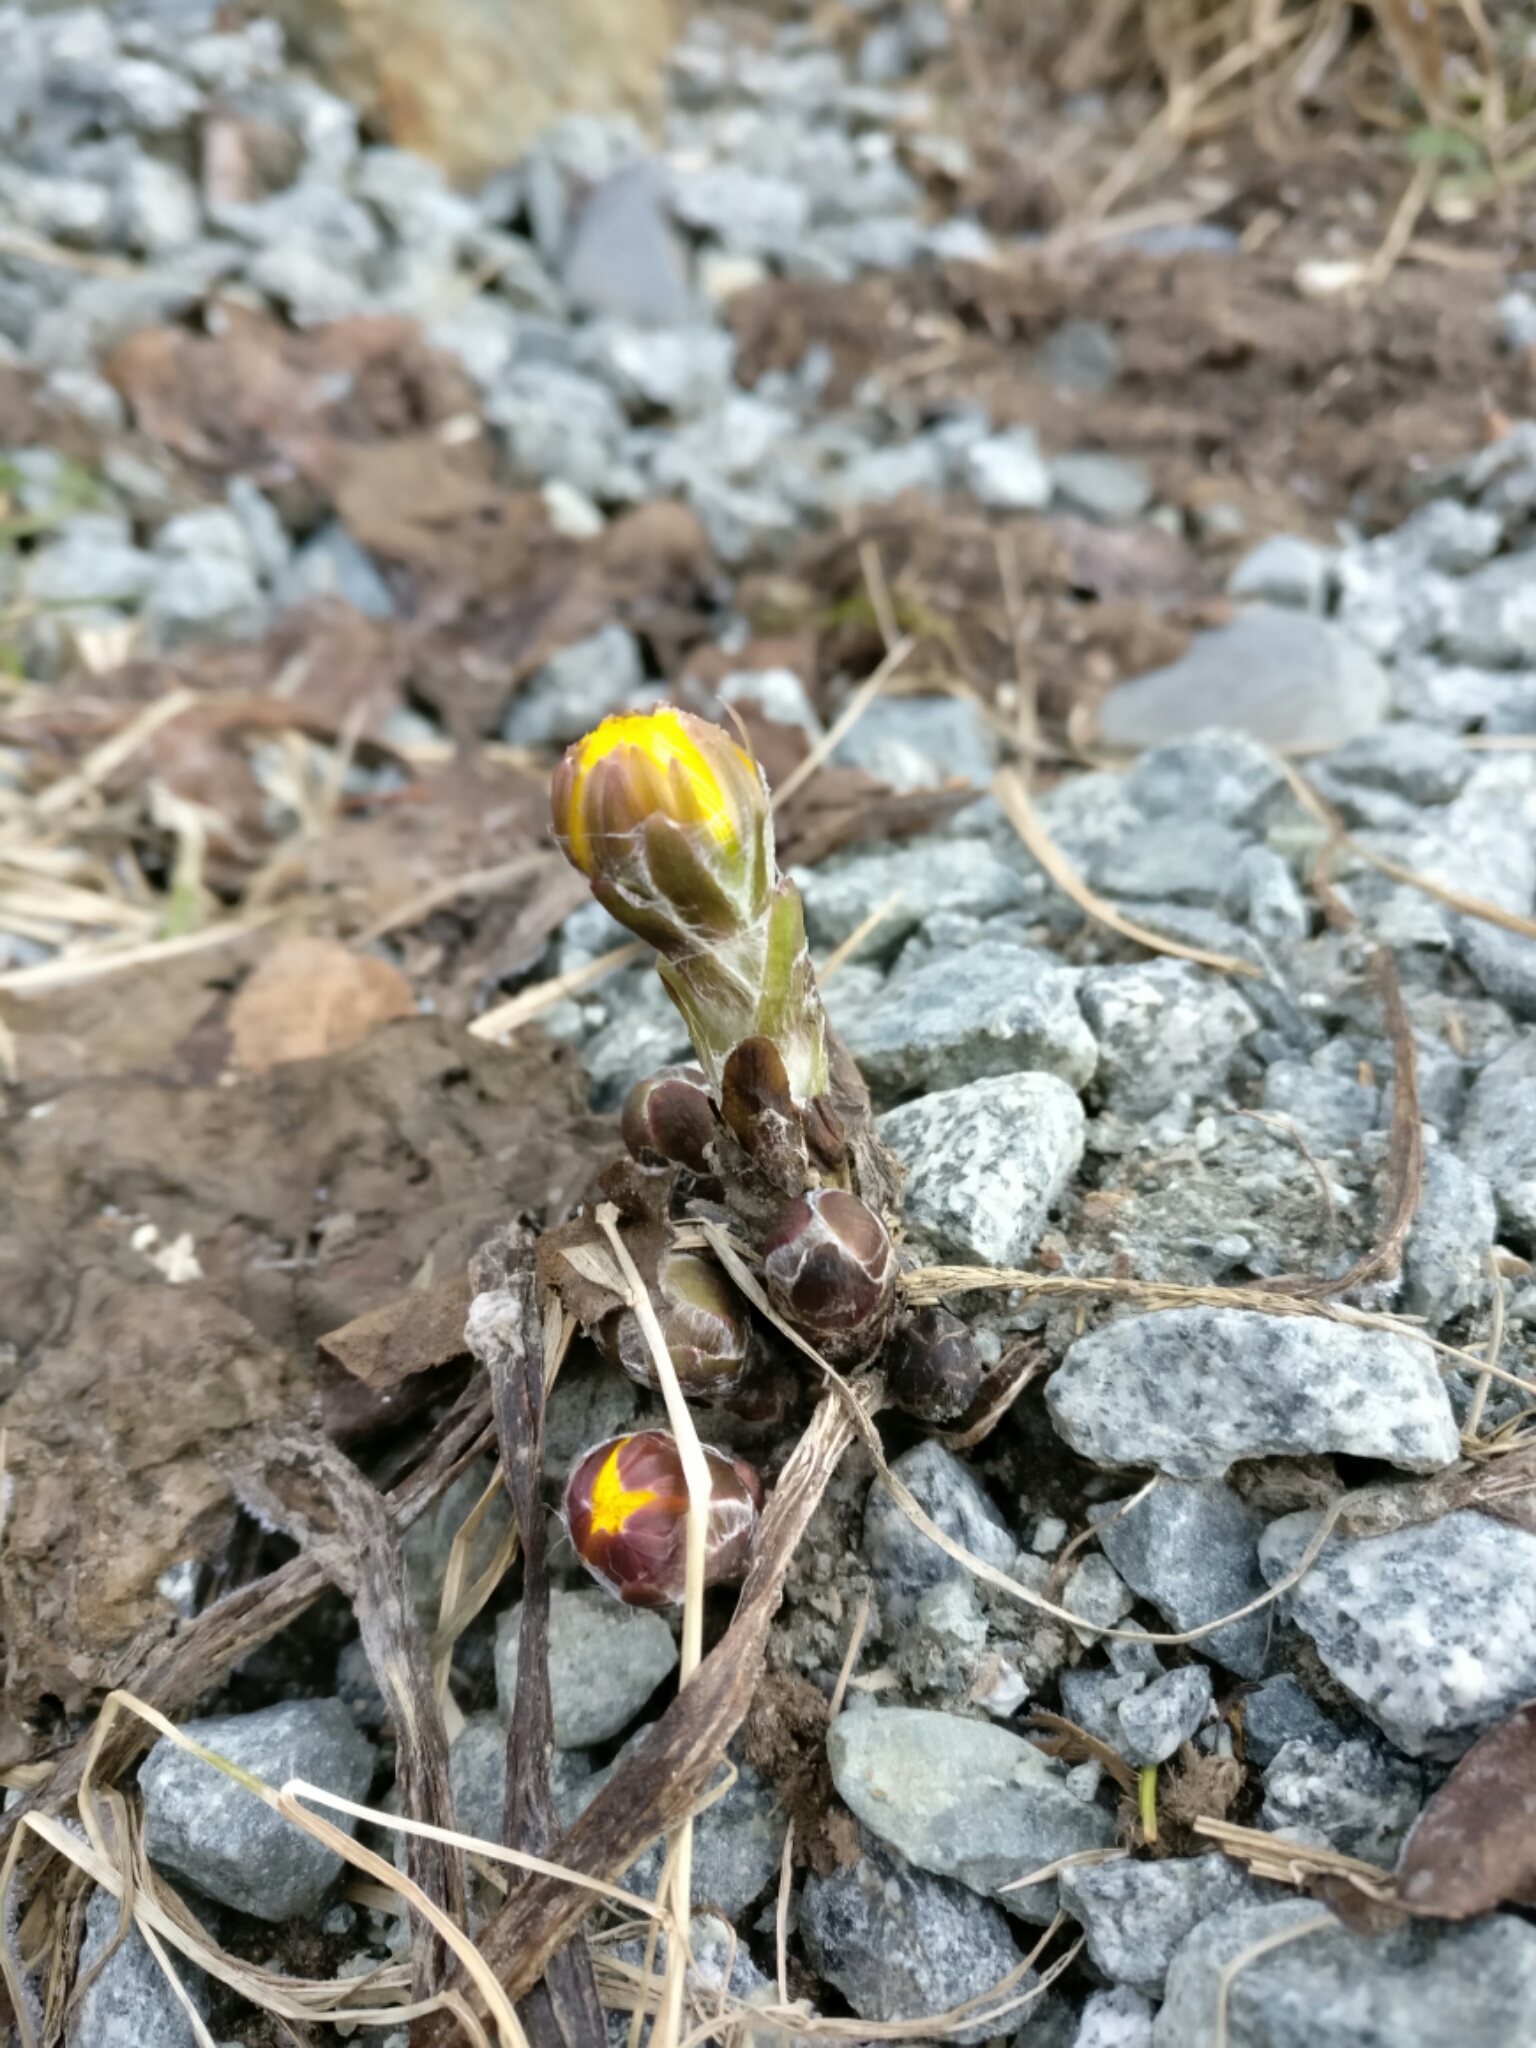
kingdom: Plantae
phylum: Tracheophyta
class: Magnoliopsida
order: Asterales
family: Asteraceae
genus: Tussilago
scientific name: Tussilago farfara
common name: Coltsfoot
